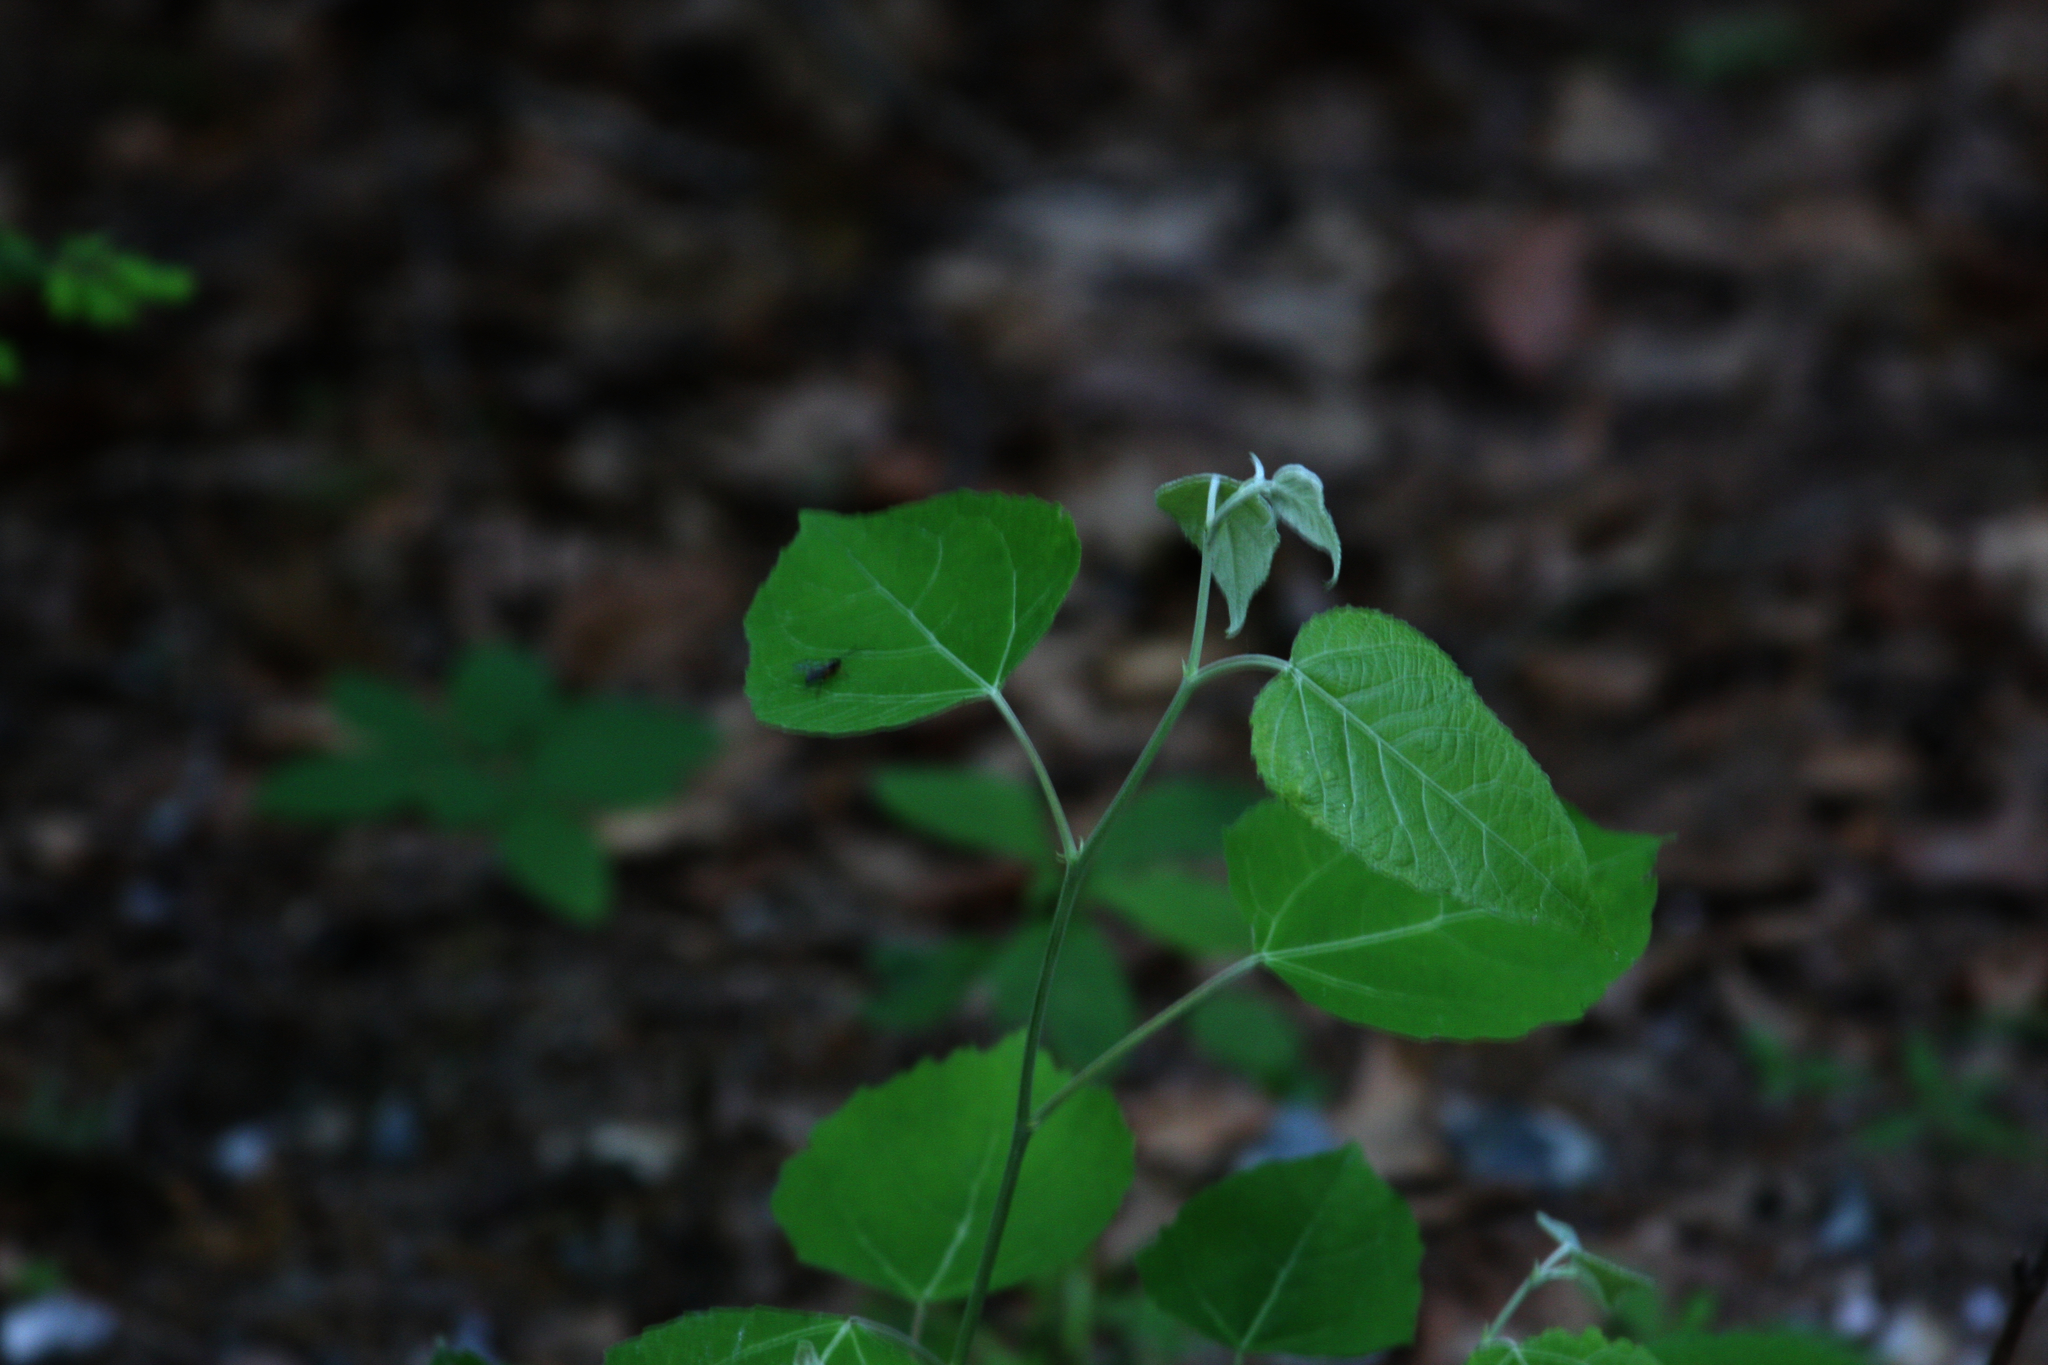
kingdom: Plantae
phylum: Tracheophyta
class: Magnoliopsida
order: Malpighiales
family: Salicaceae
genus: Populus
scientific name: Populus tremuloides
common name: Quaking aspen
